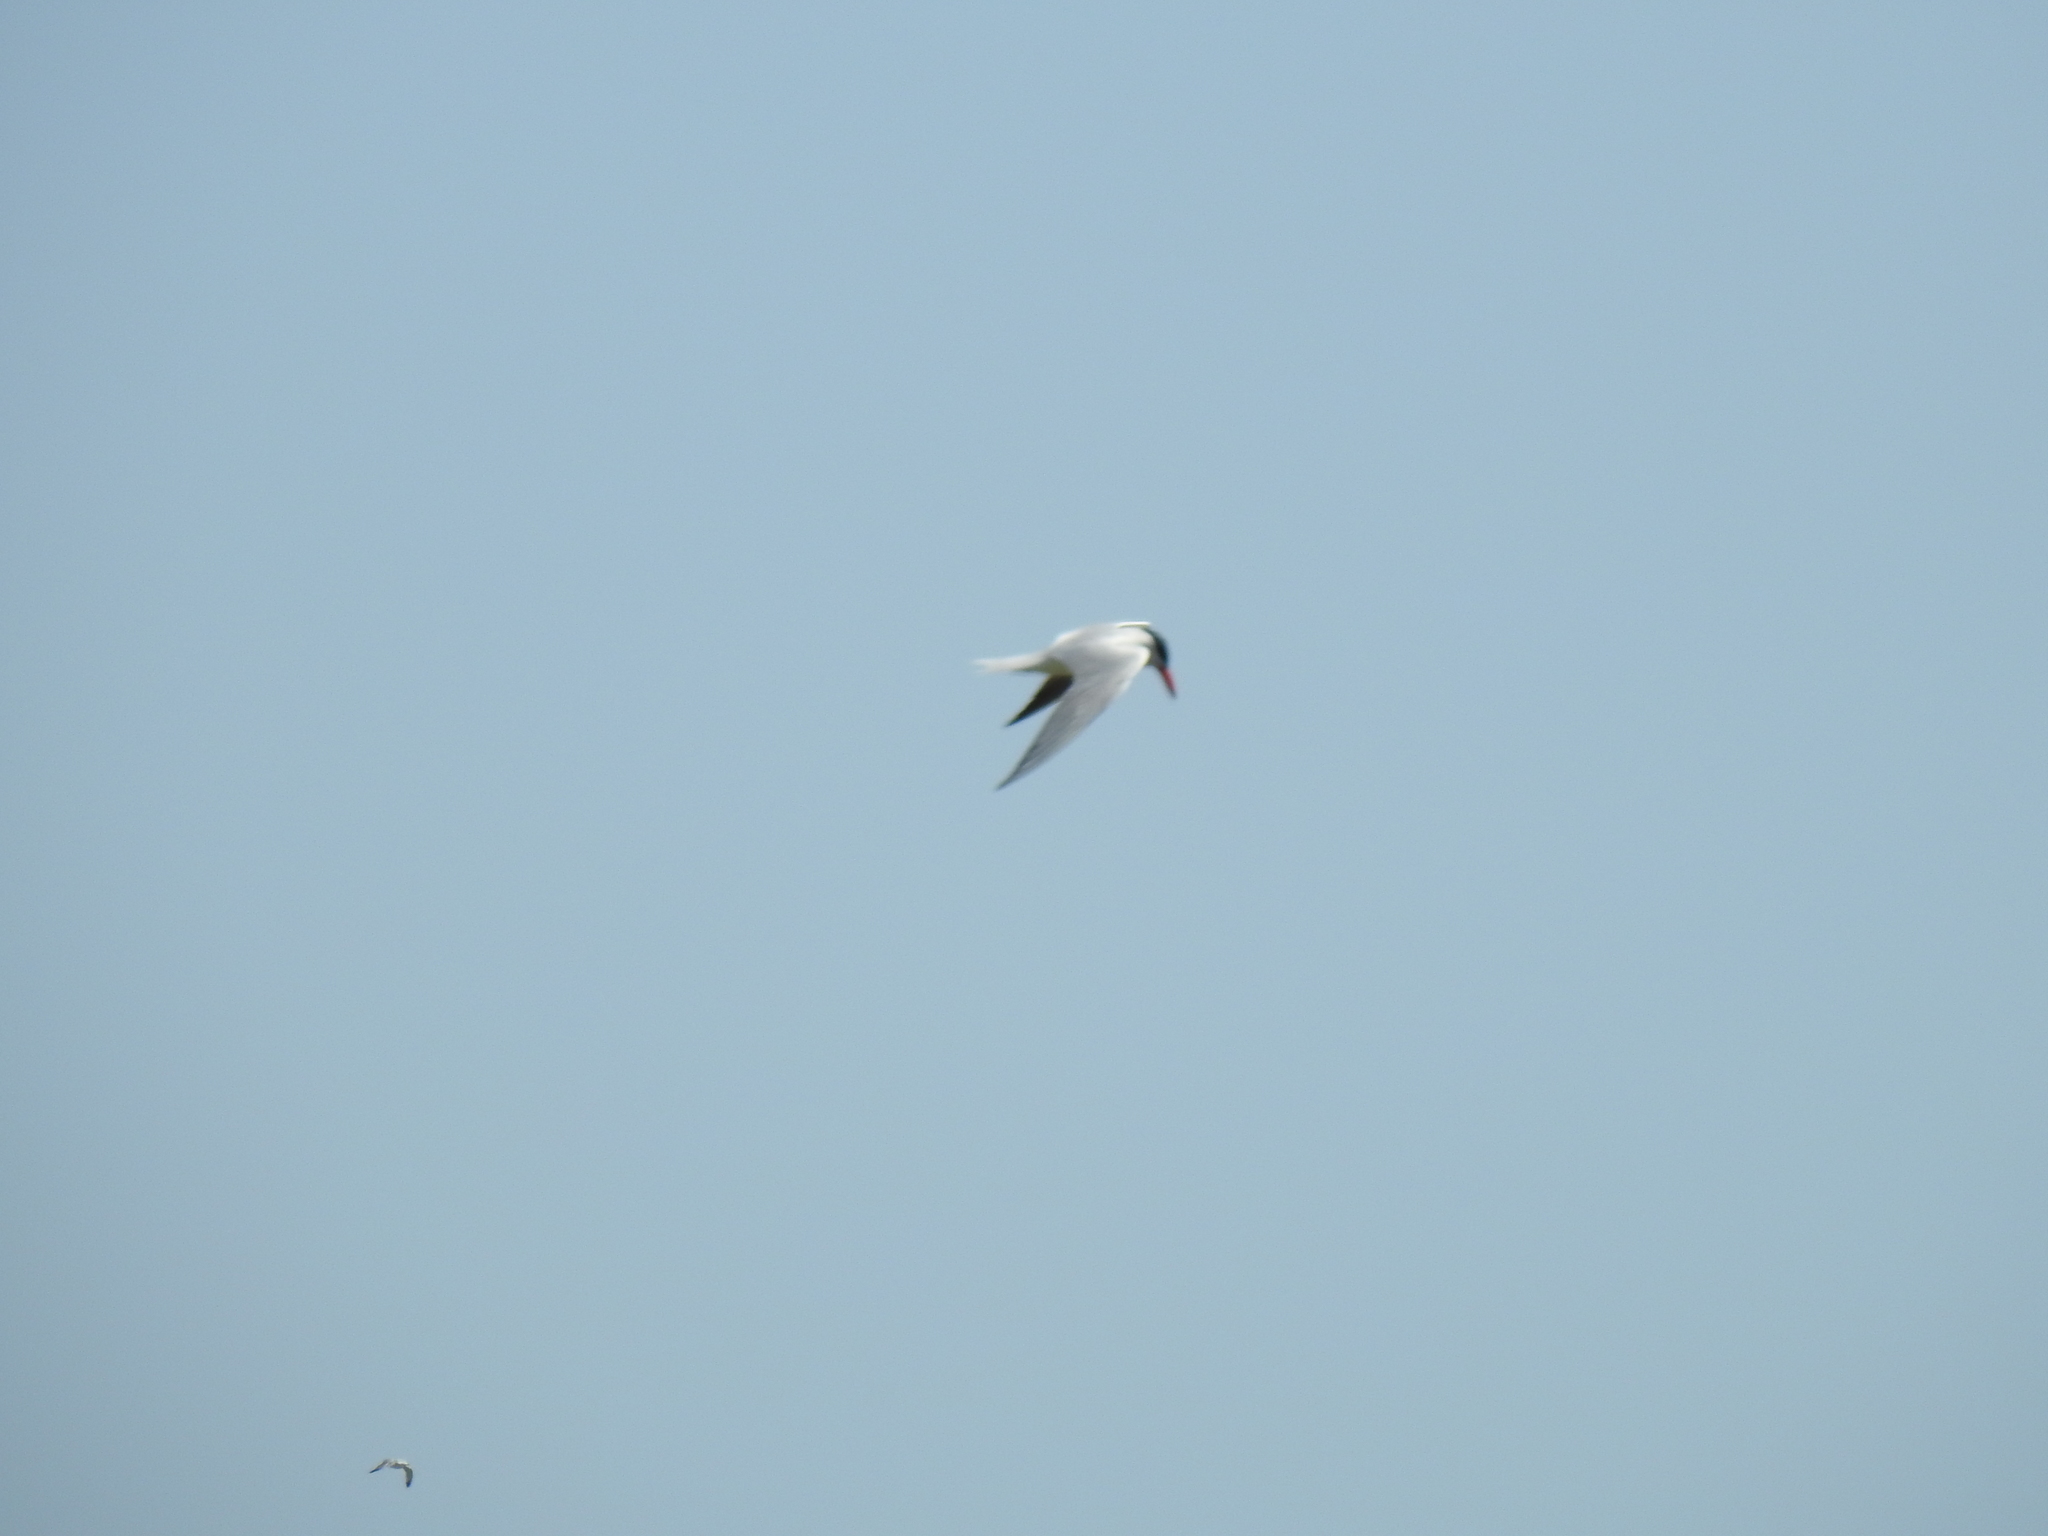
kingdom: Animalia
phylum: Chordata
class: Aves
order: Charadriiformes
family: Laridae
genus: Hydroprogne
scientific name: Hydroprogne caspia
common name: Caspian tern
